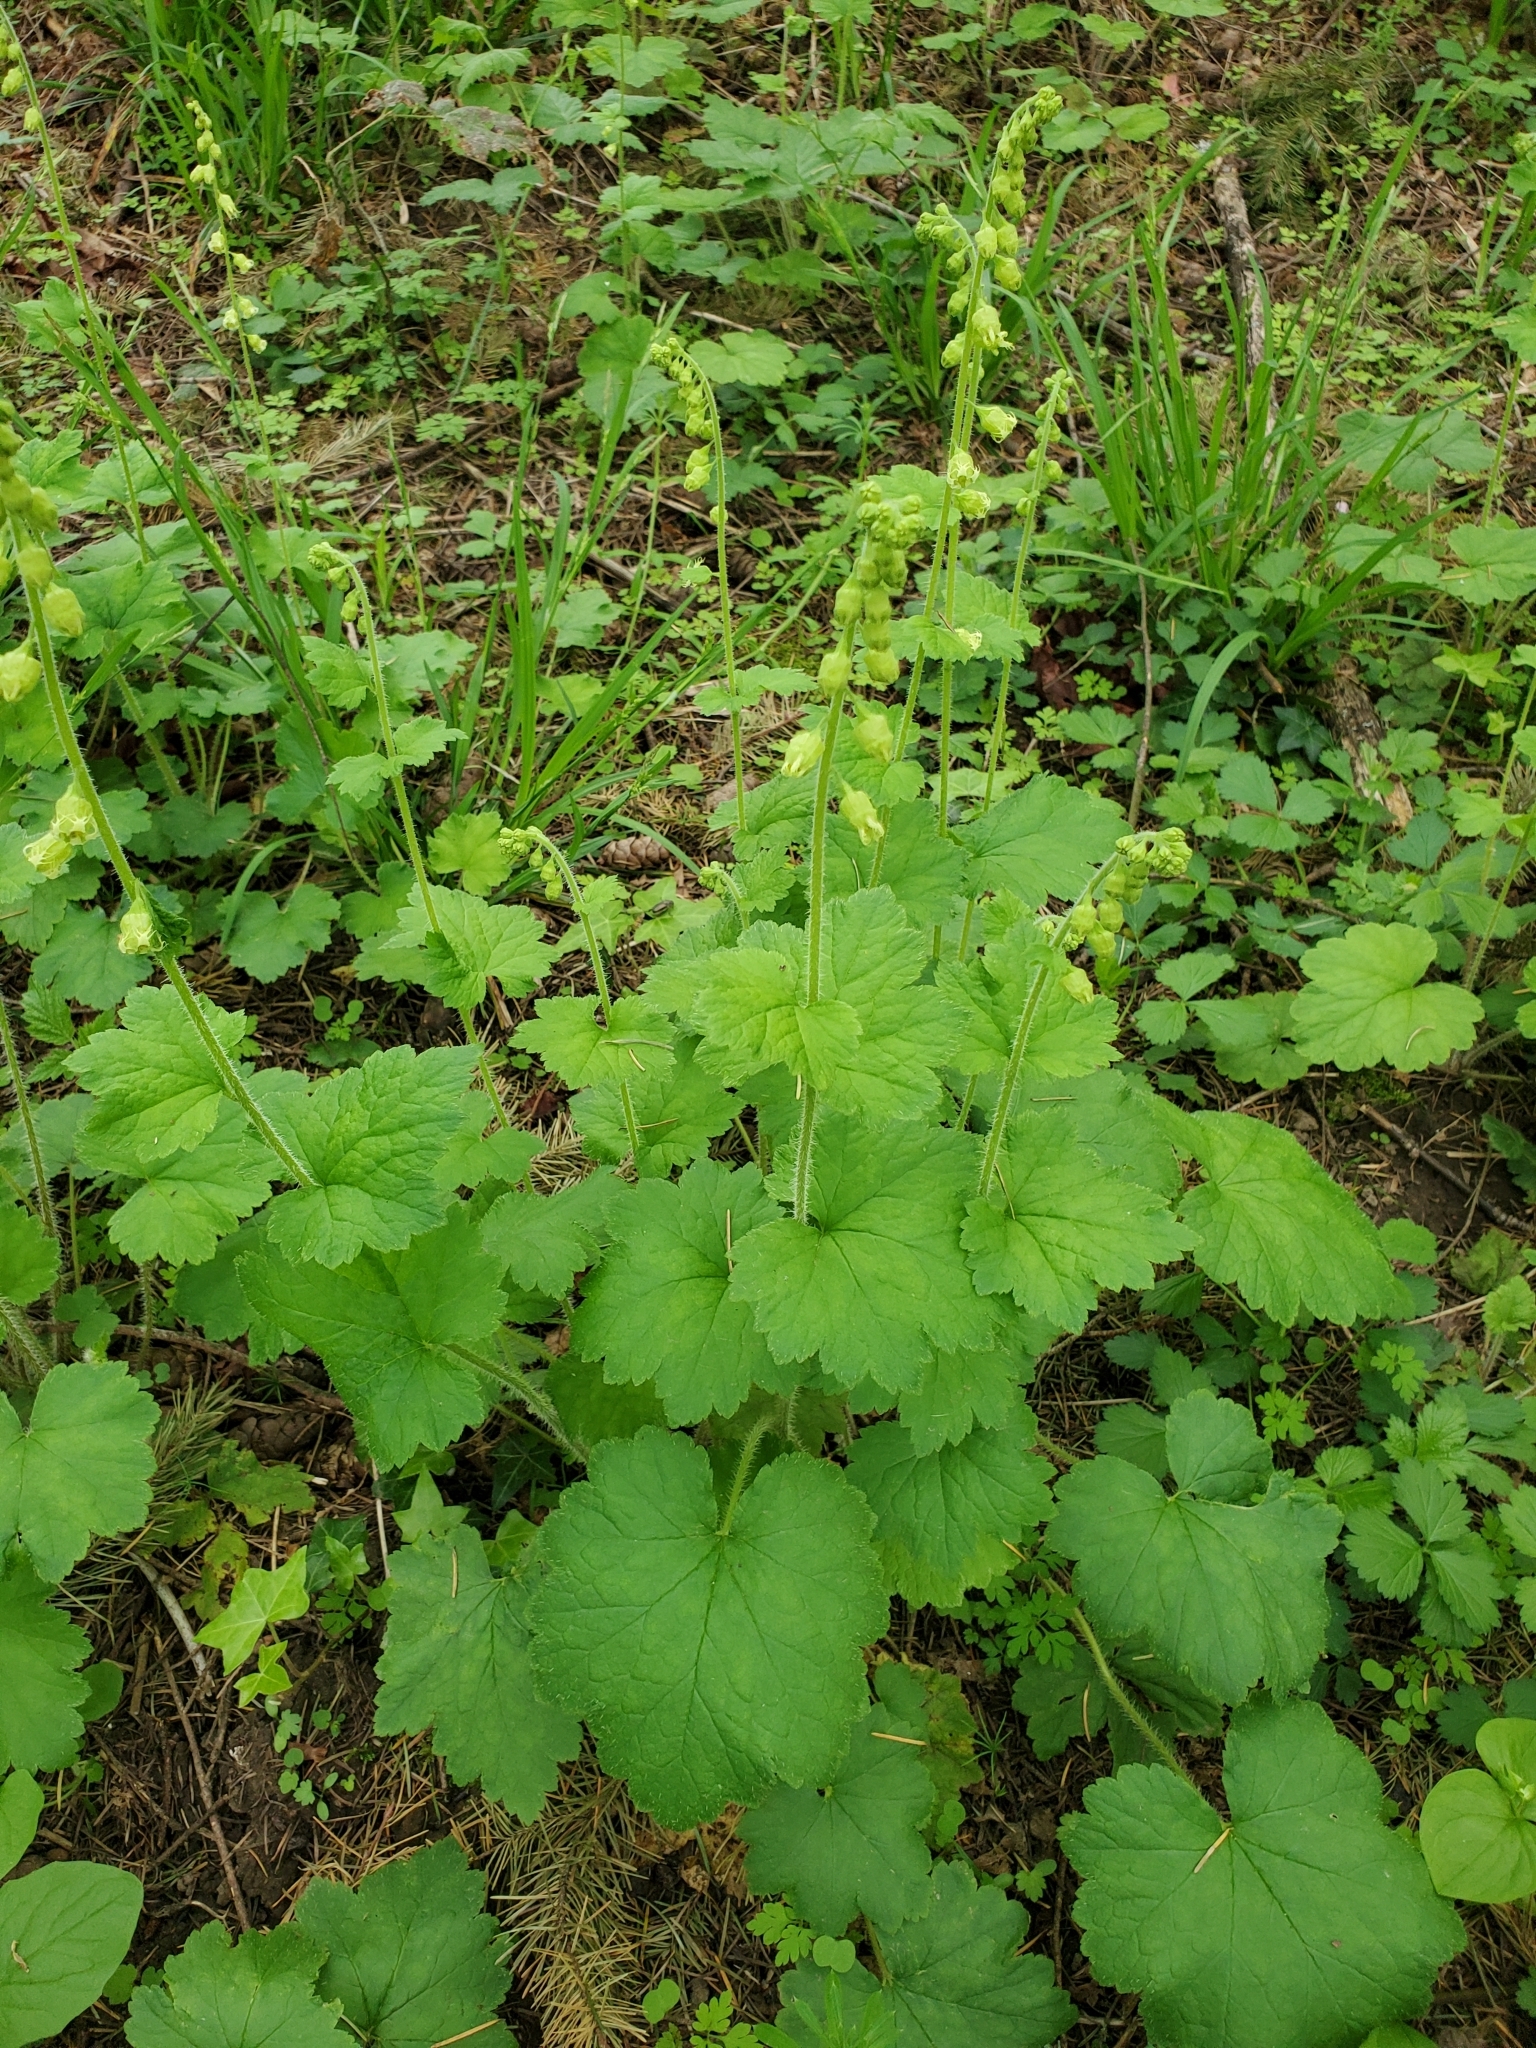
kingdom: Plantae
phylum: Tracheophyta
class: Magnoliopsida
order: Saxifragales
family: Saxifragaceae
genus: Tellima
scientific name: Tellima grandiflora
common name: Fringecups
